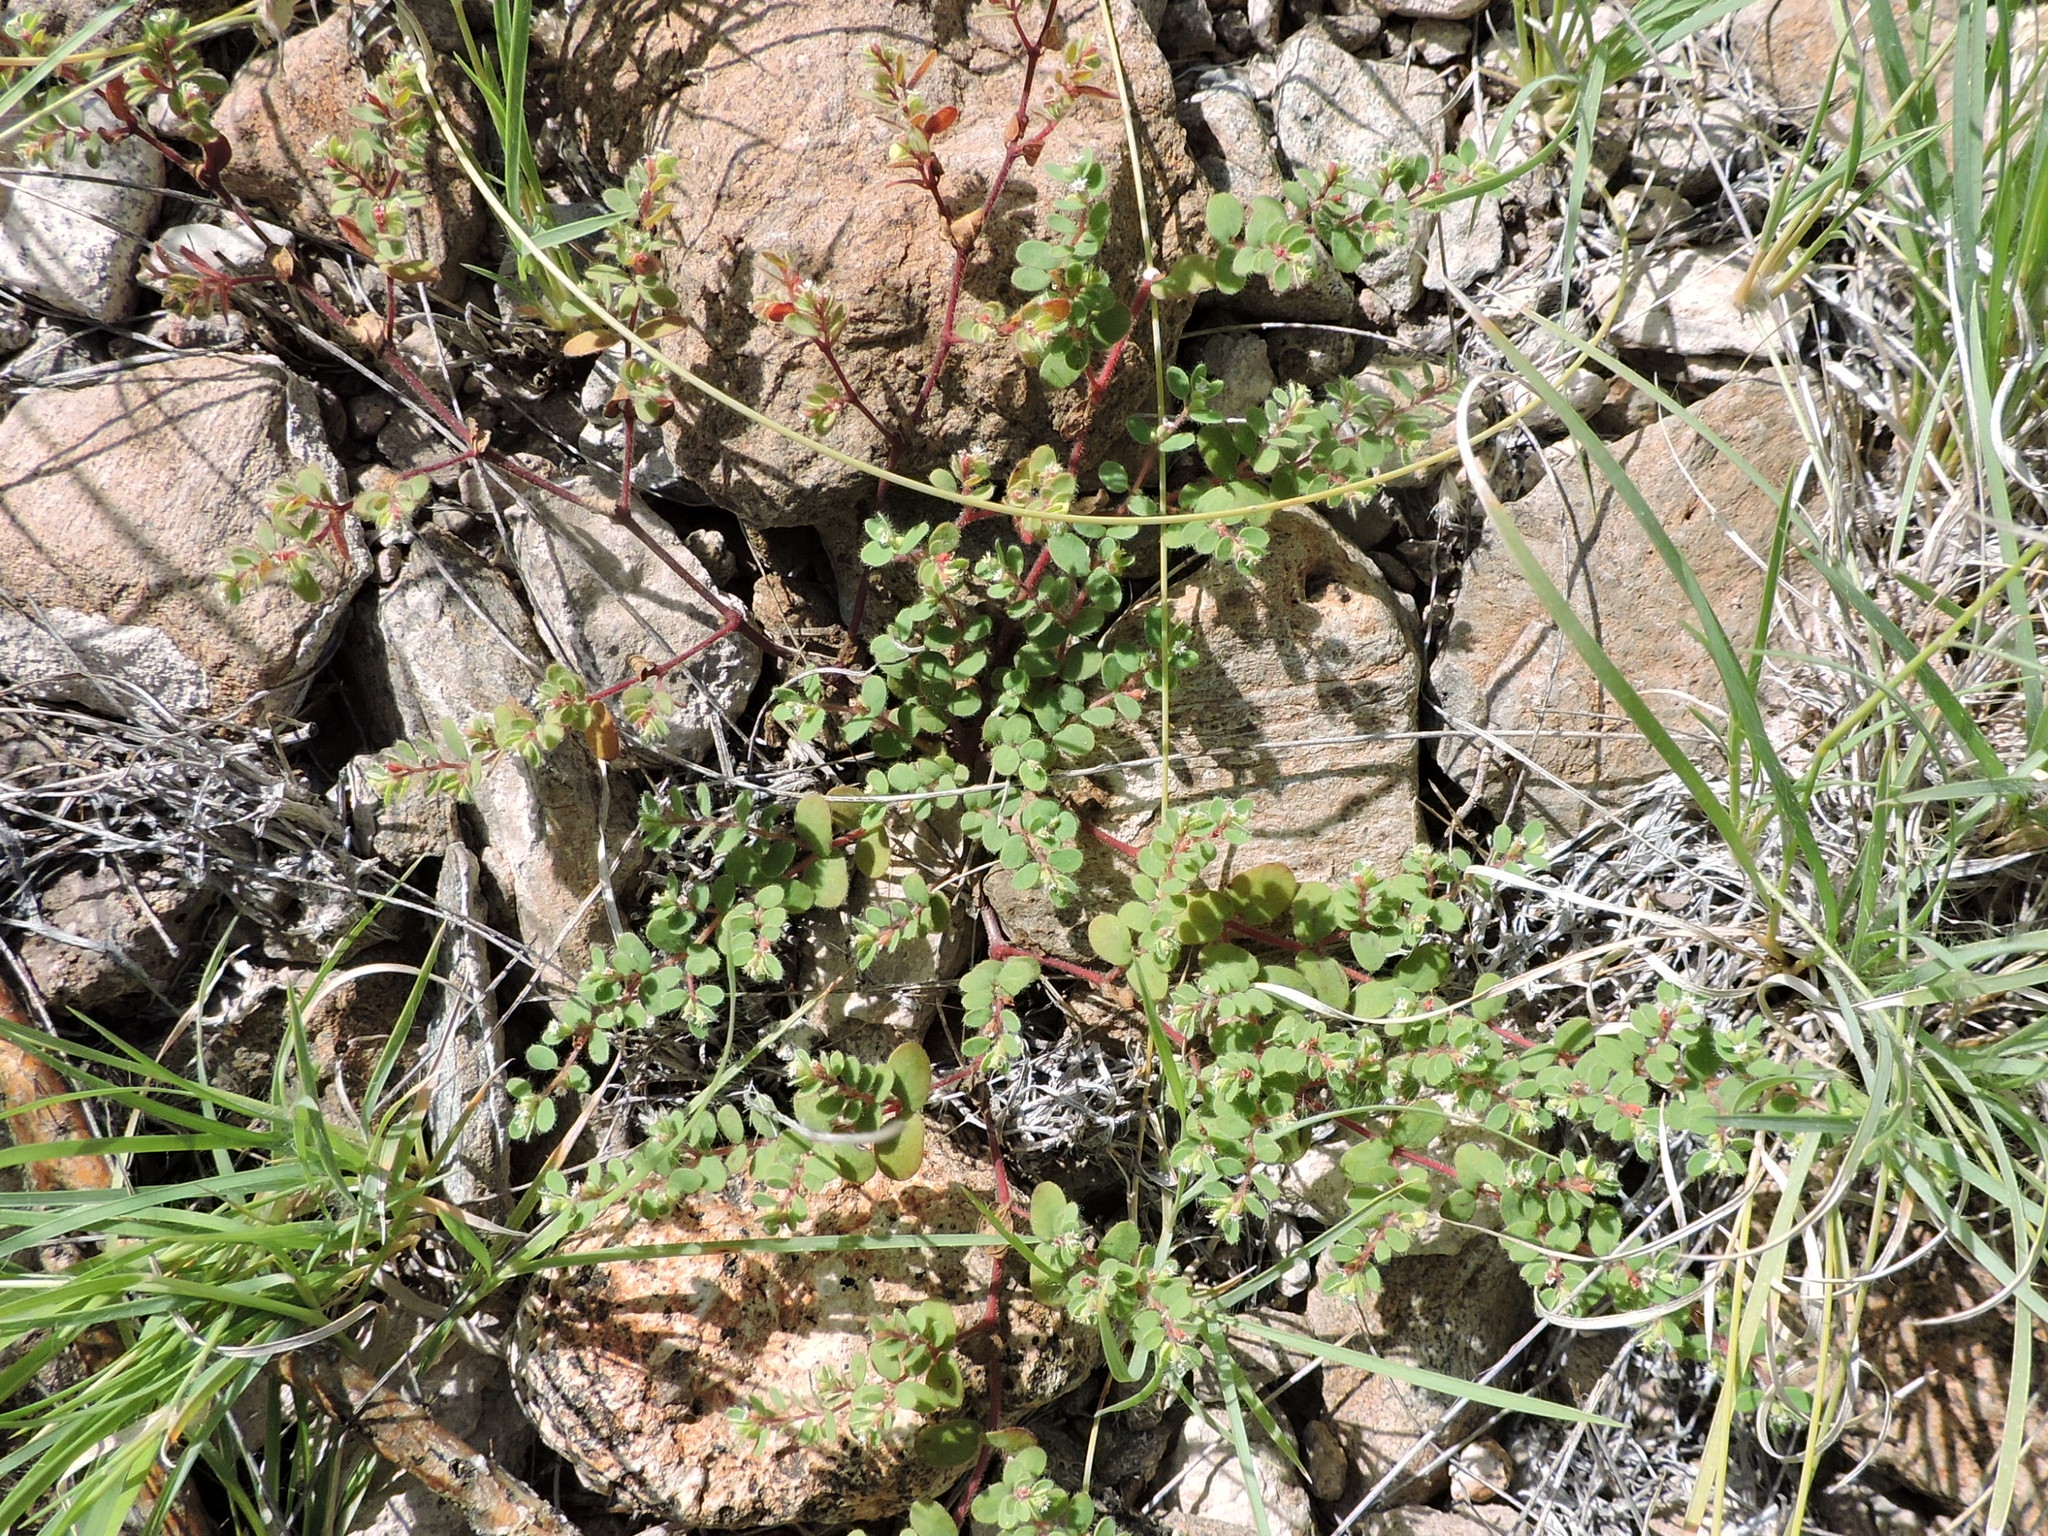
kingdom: Plantae
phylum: Tracheophyta
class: Magnoliopsida
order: Malpighiales
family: Euphorbiaceae
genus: Euphorbia
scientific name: Euphorbia setiloba
